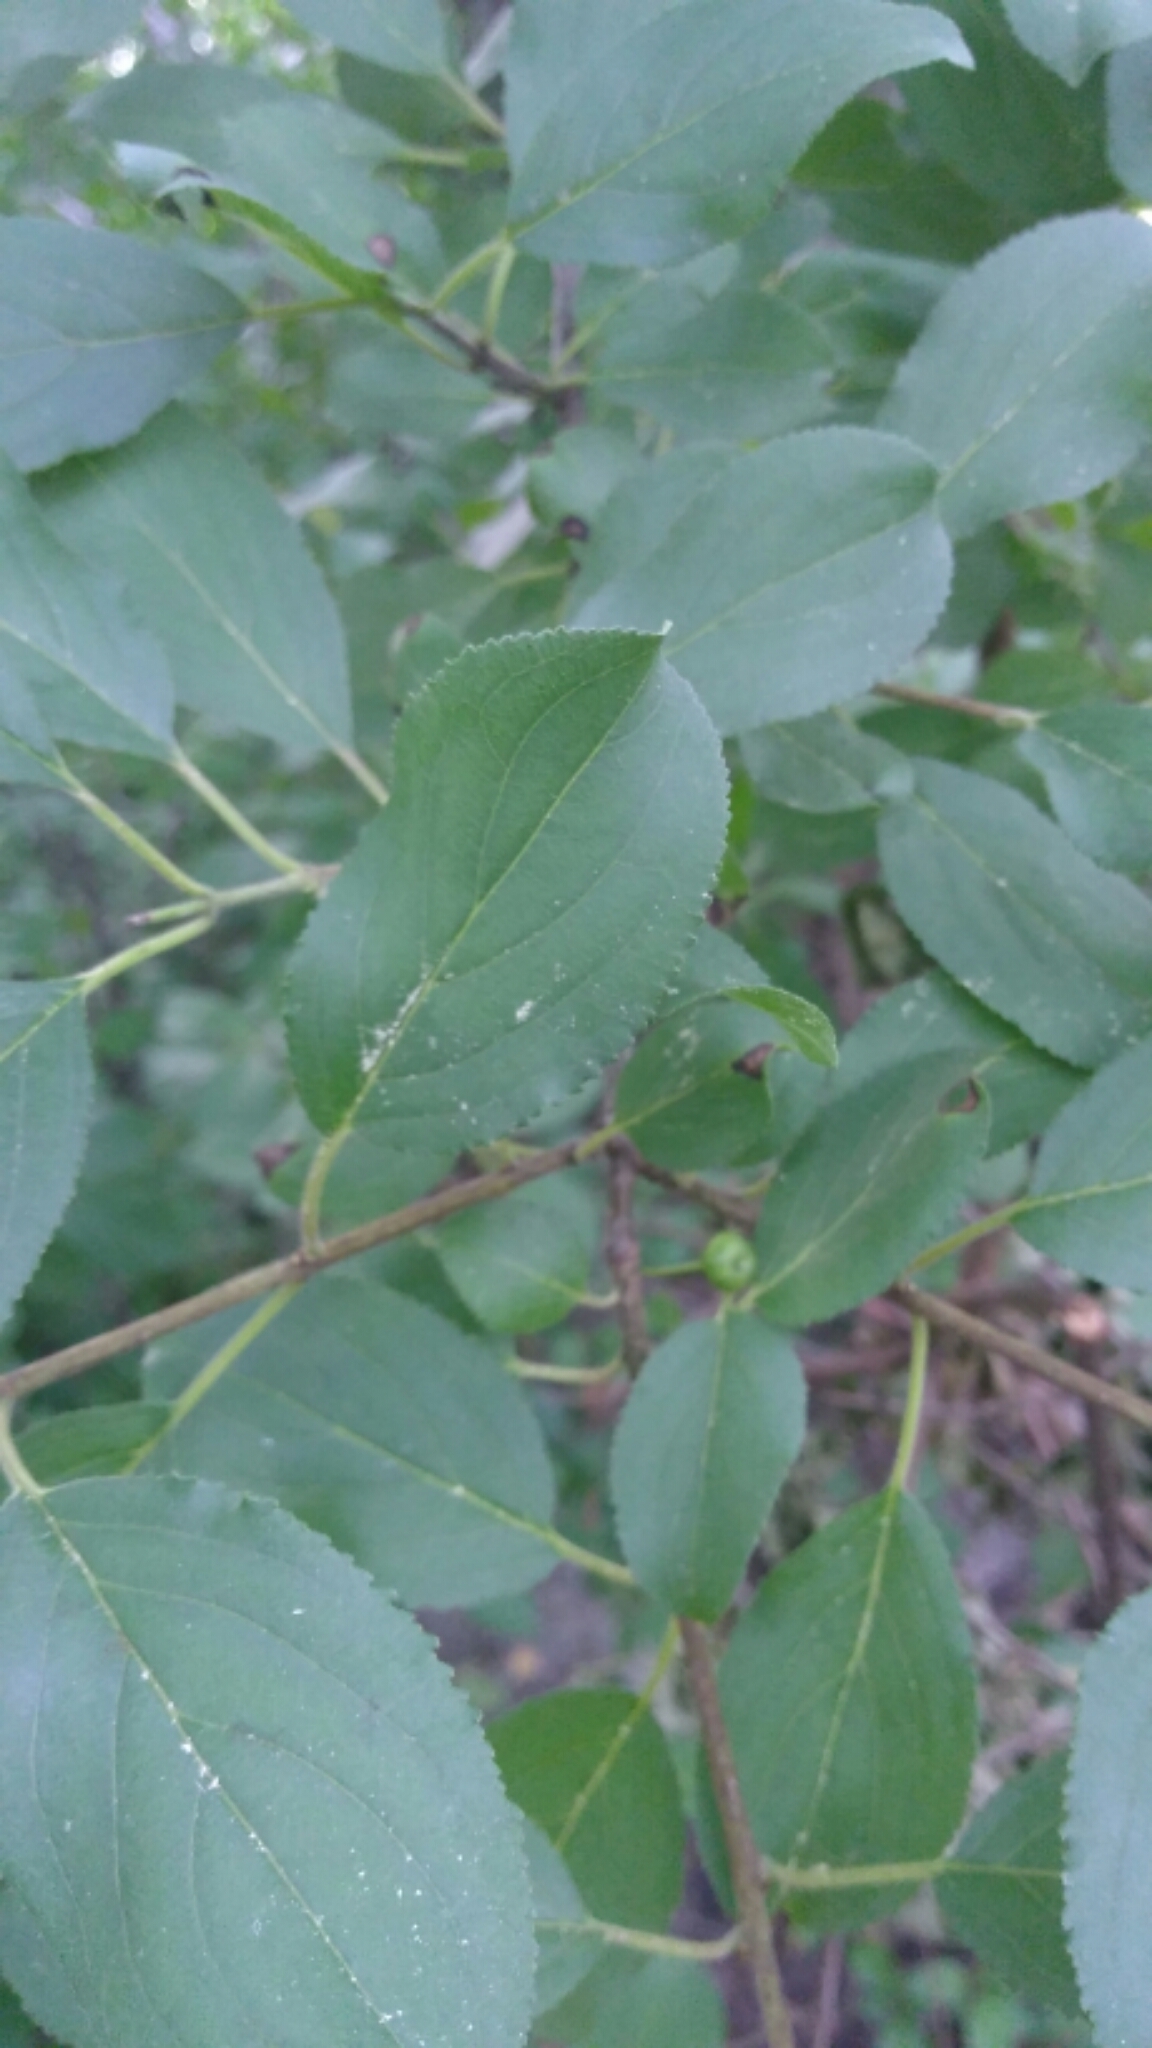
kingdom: Plantae
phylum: Tracheophyta
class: Magnoliopsida
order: Rosales
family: Rhamnaceae
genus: Rhamnus
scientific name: Rhamnus cathartica
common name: Common buckthorn
